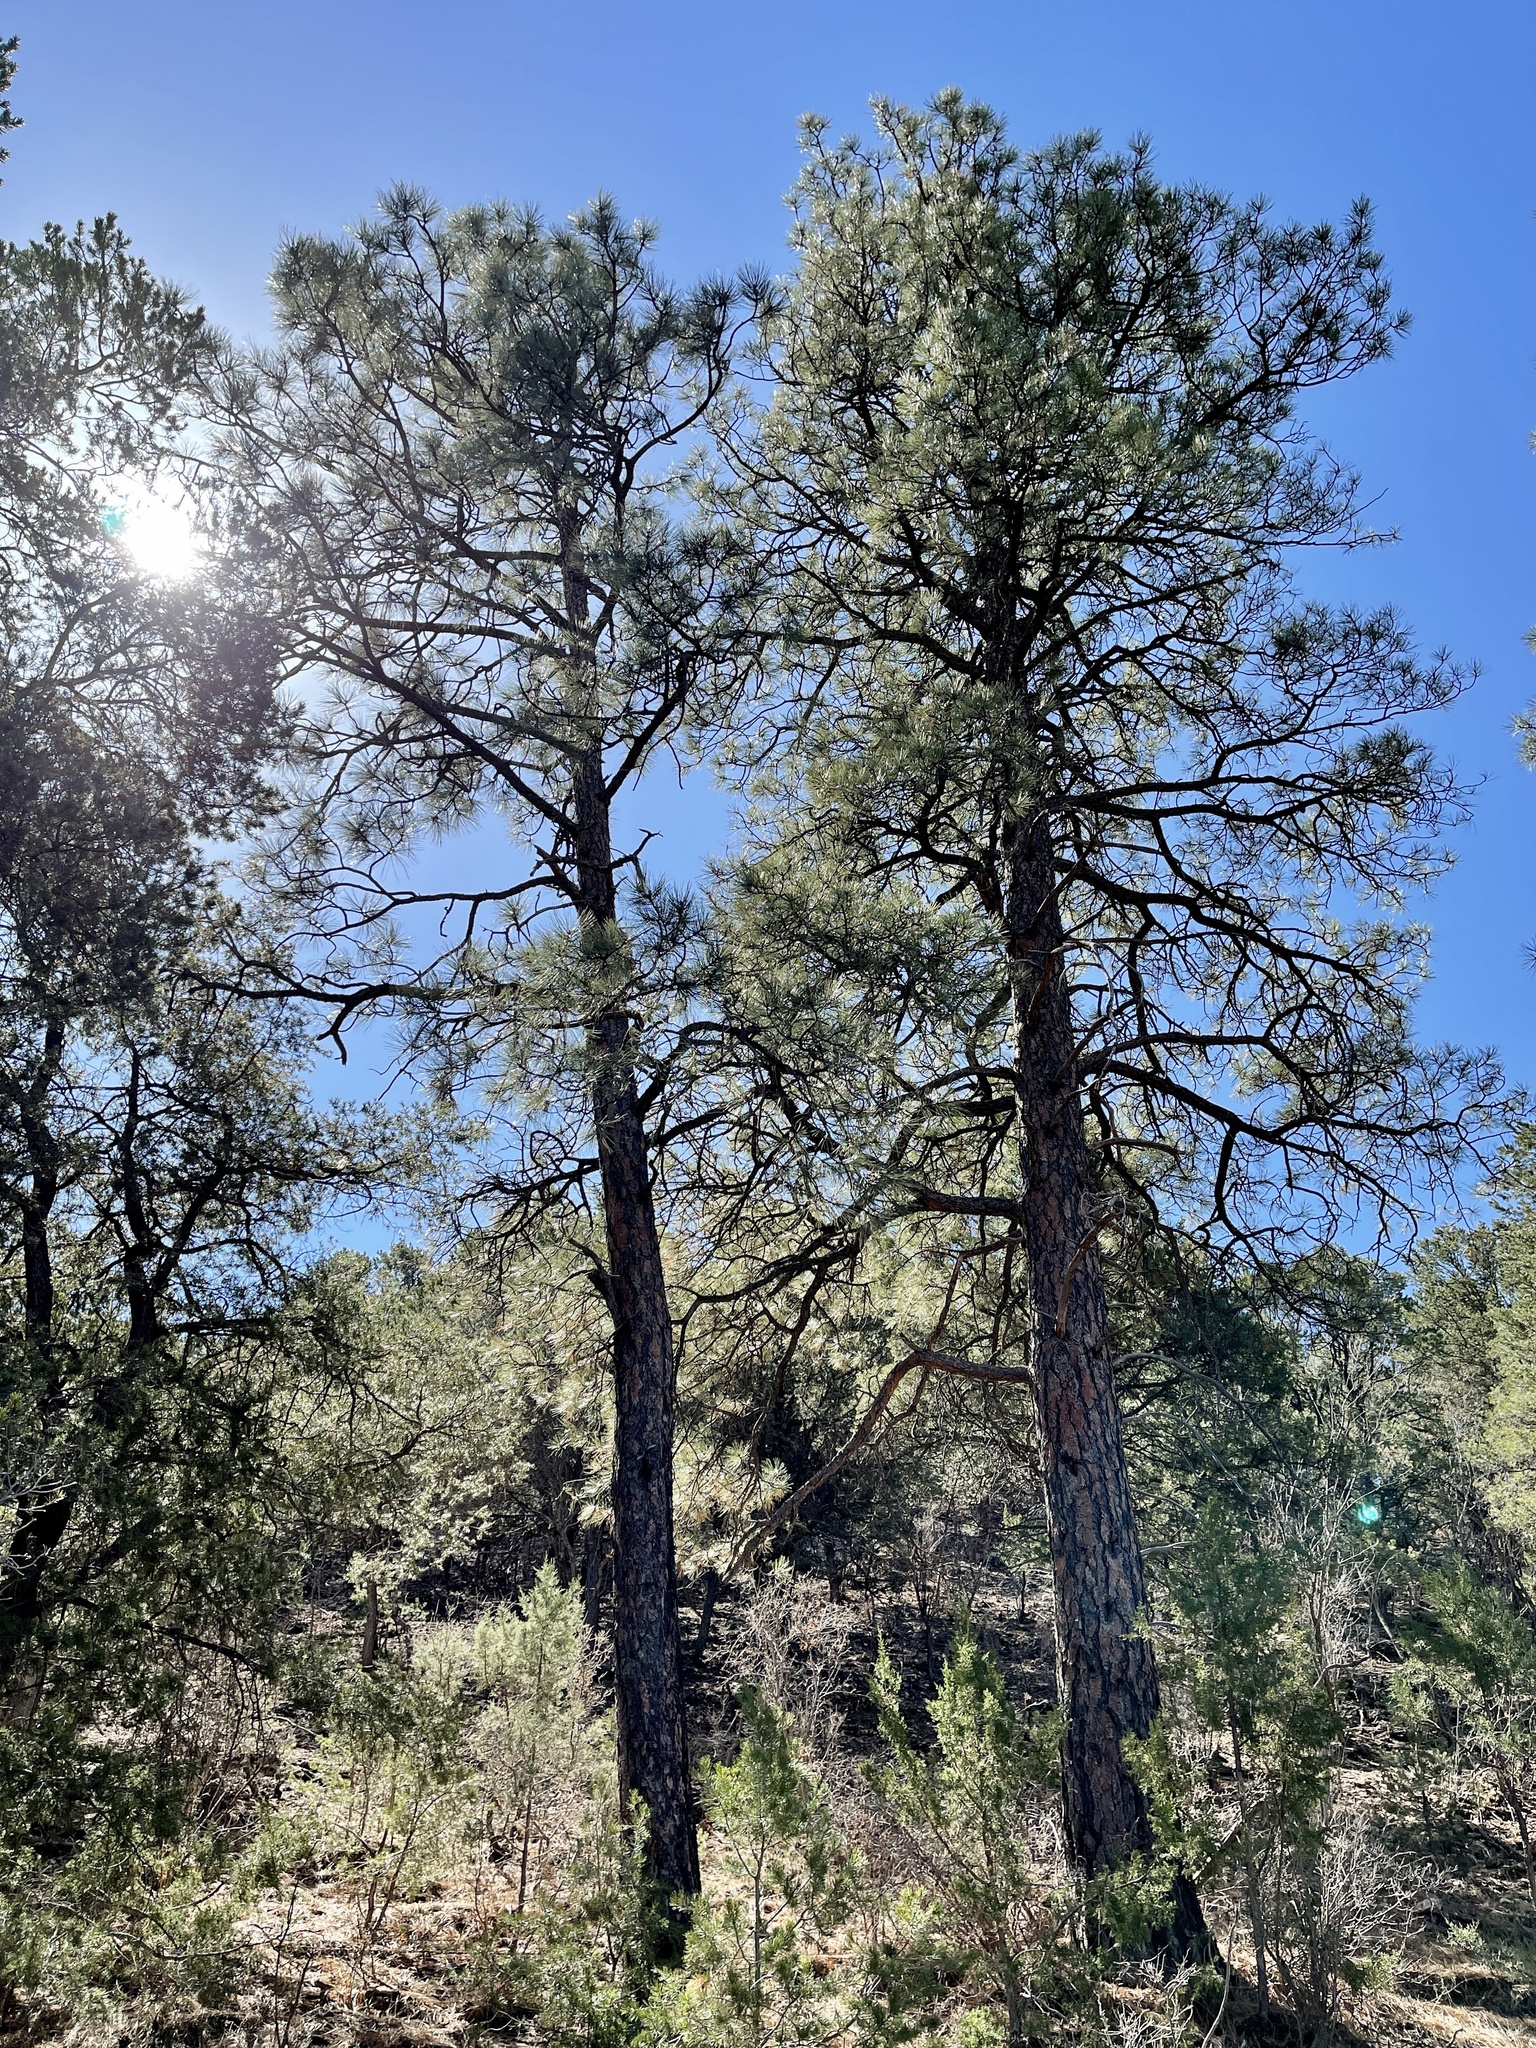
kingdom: Plantae
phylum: Tracheophyta
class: Pinopsida
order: Pinales
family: Pinaceae
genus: Pinus
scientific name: Pinus ponderosa
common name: Western yellow-pine
